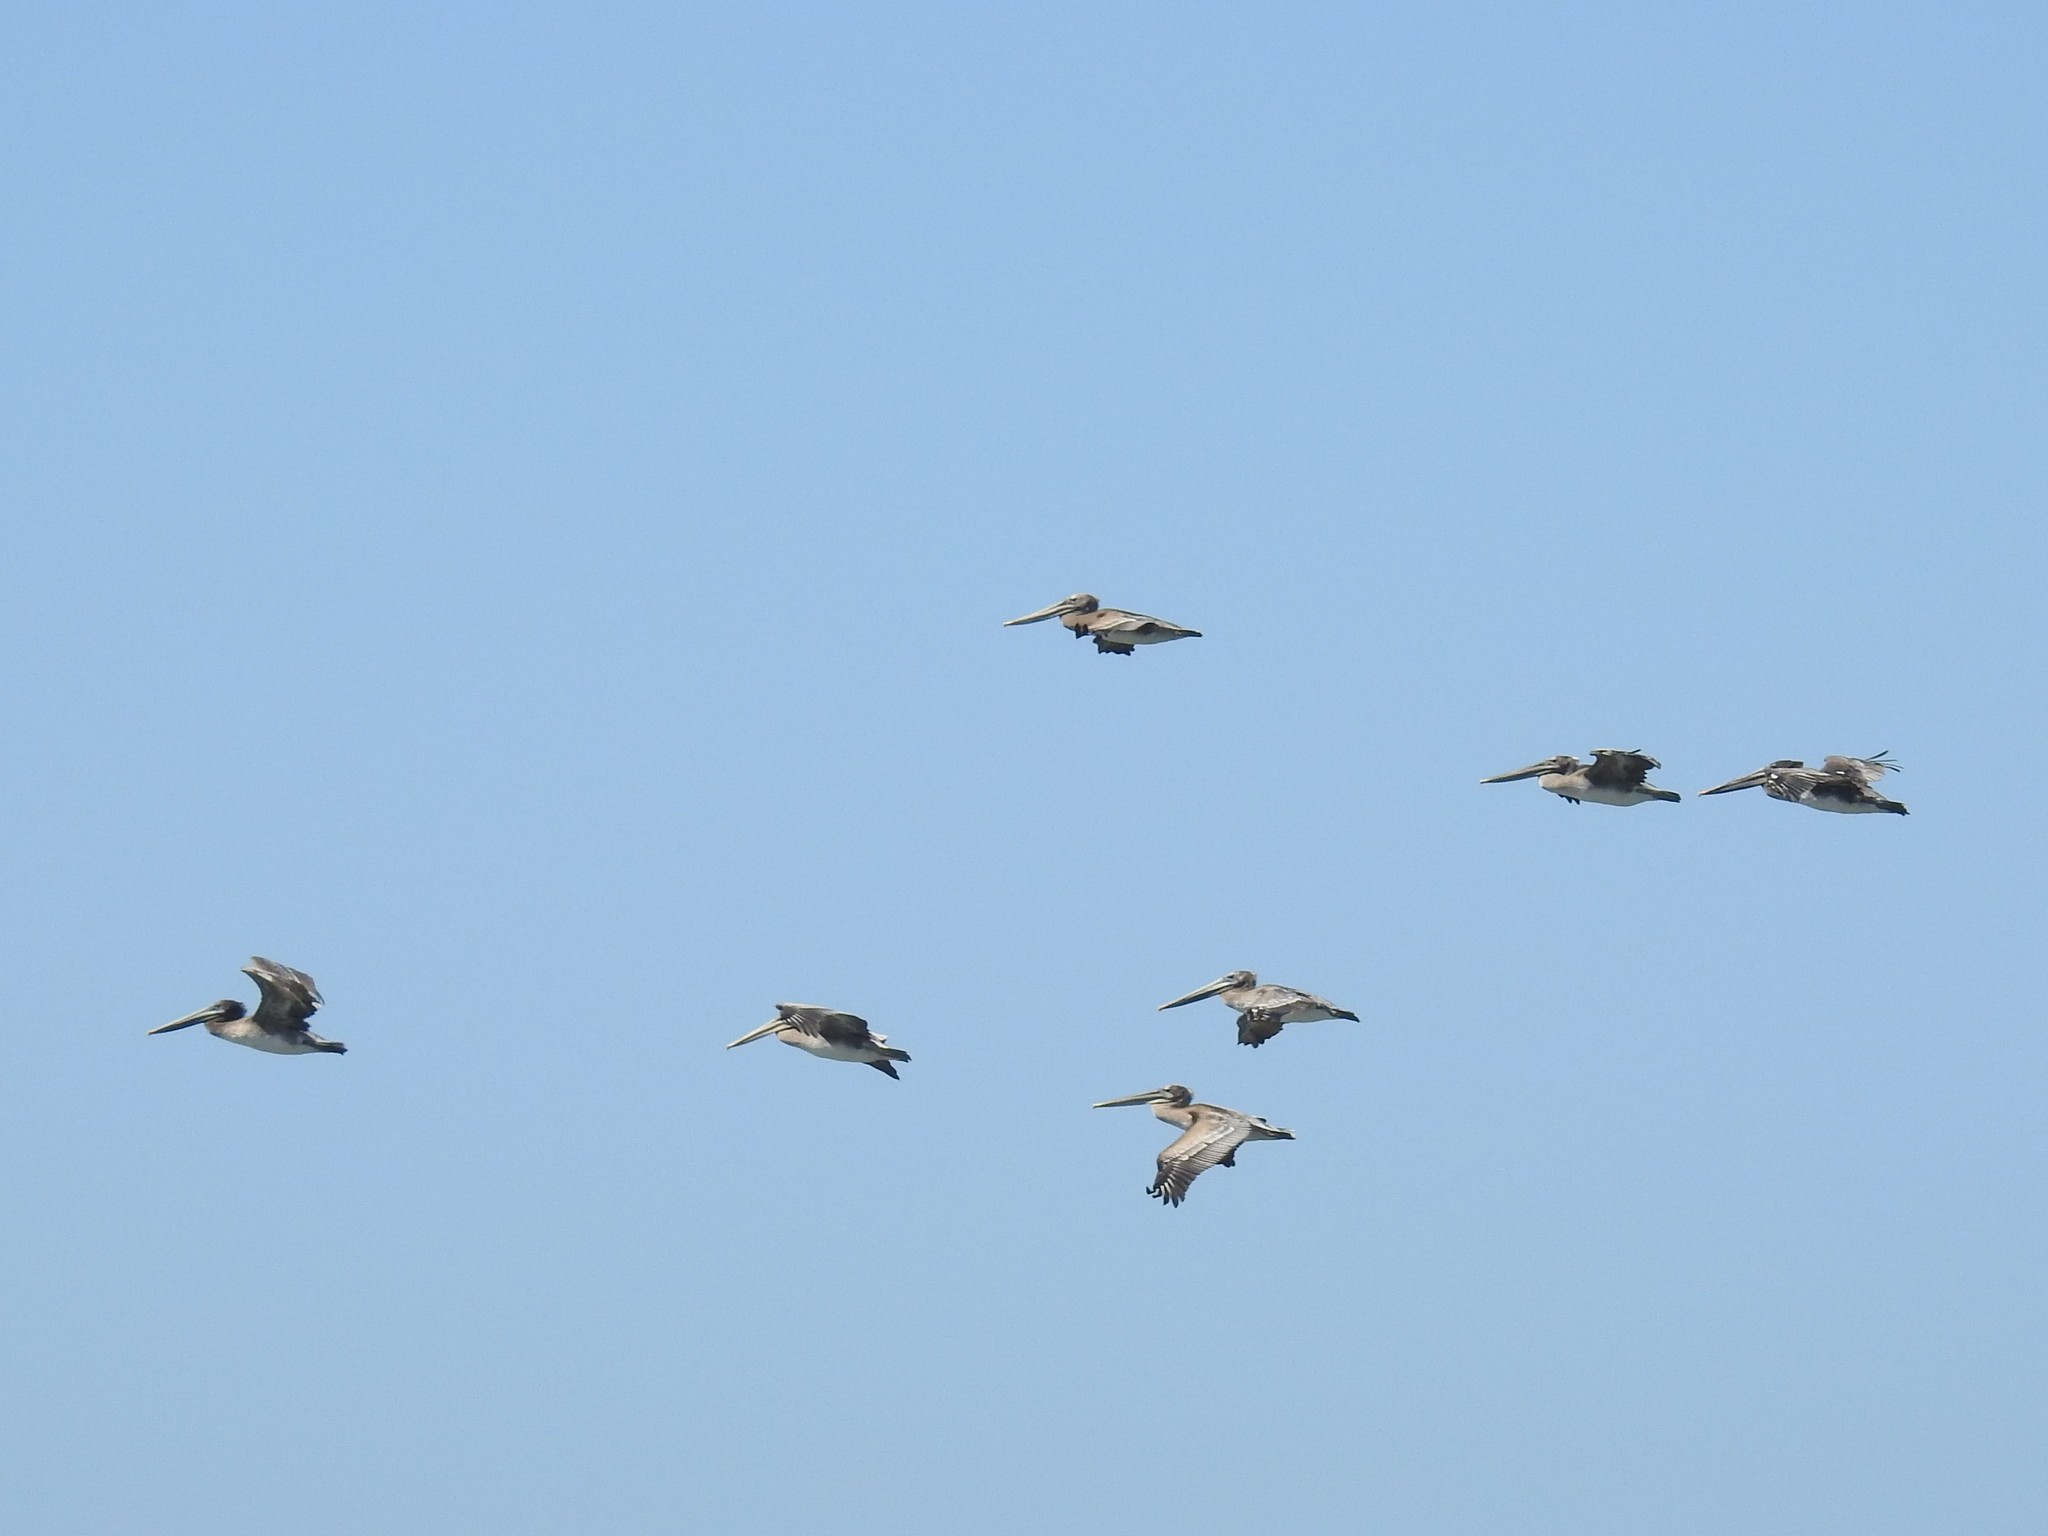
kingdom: Animalia
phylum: Chordata
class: Aves
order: Pelecaniformes
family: Pelecanidae
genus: Pelecanus
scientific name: Pelecanus occidentalis
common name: Brown pelican
